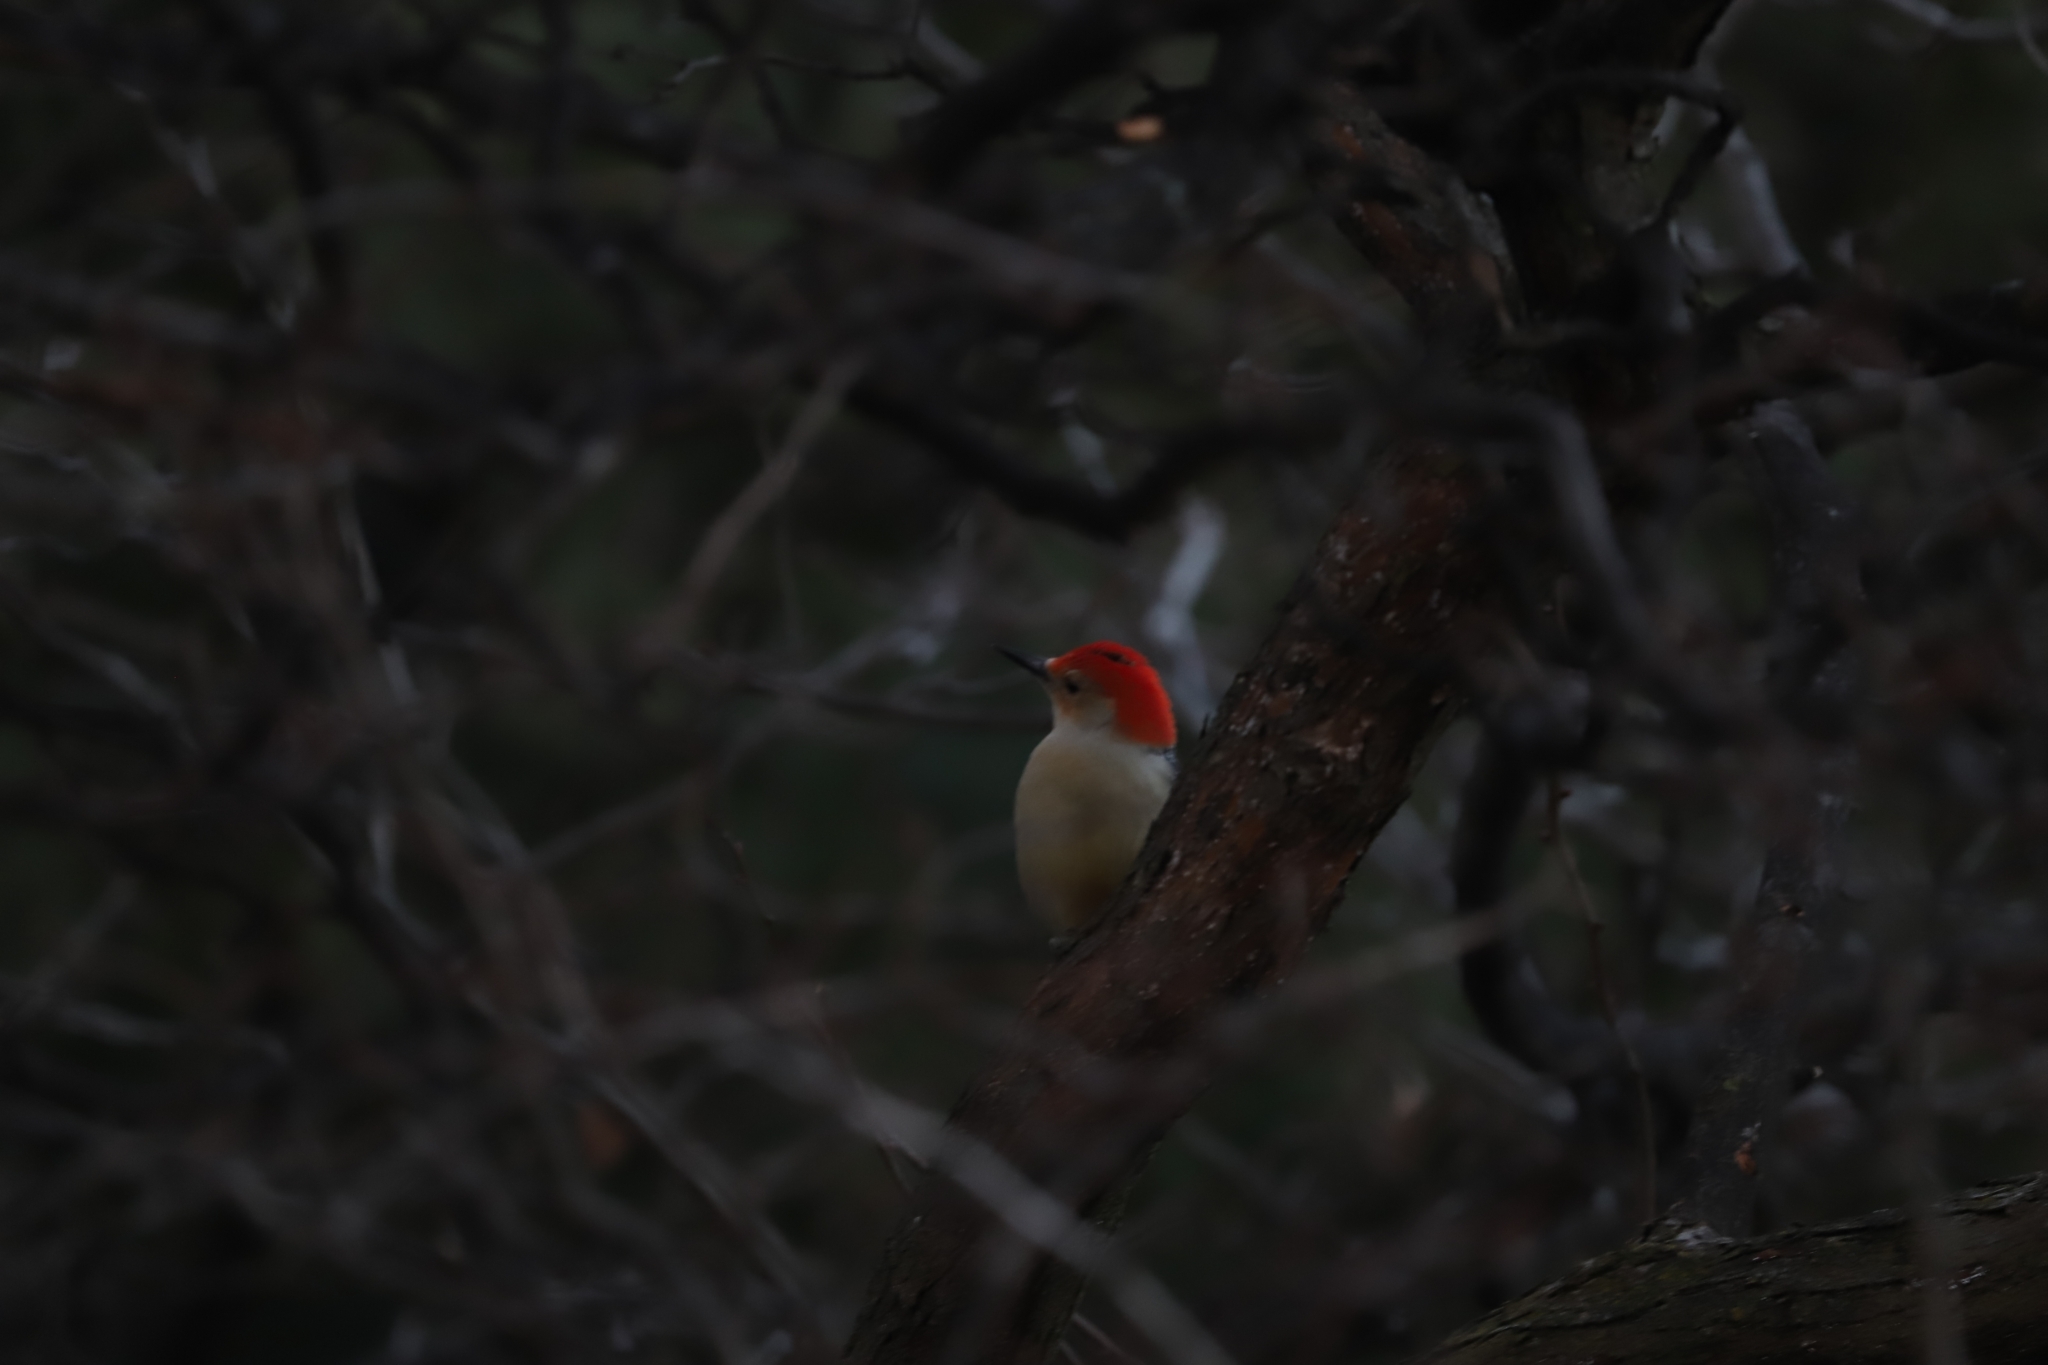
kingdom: Animalia
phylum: Chordata
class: Aves
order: Piciformes
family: Picidae
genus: Melanerpes
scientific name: Melanerpes carolinus
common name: Red-bellied woodpecker
